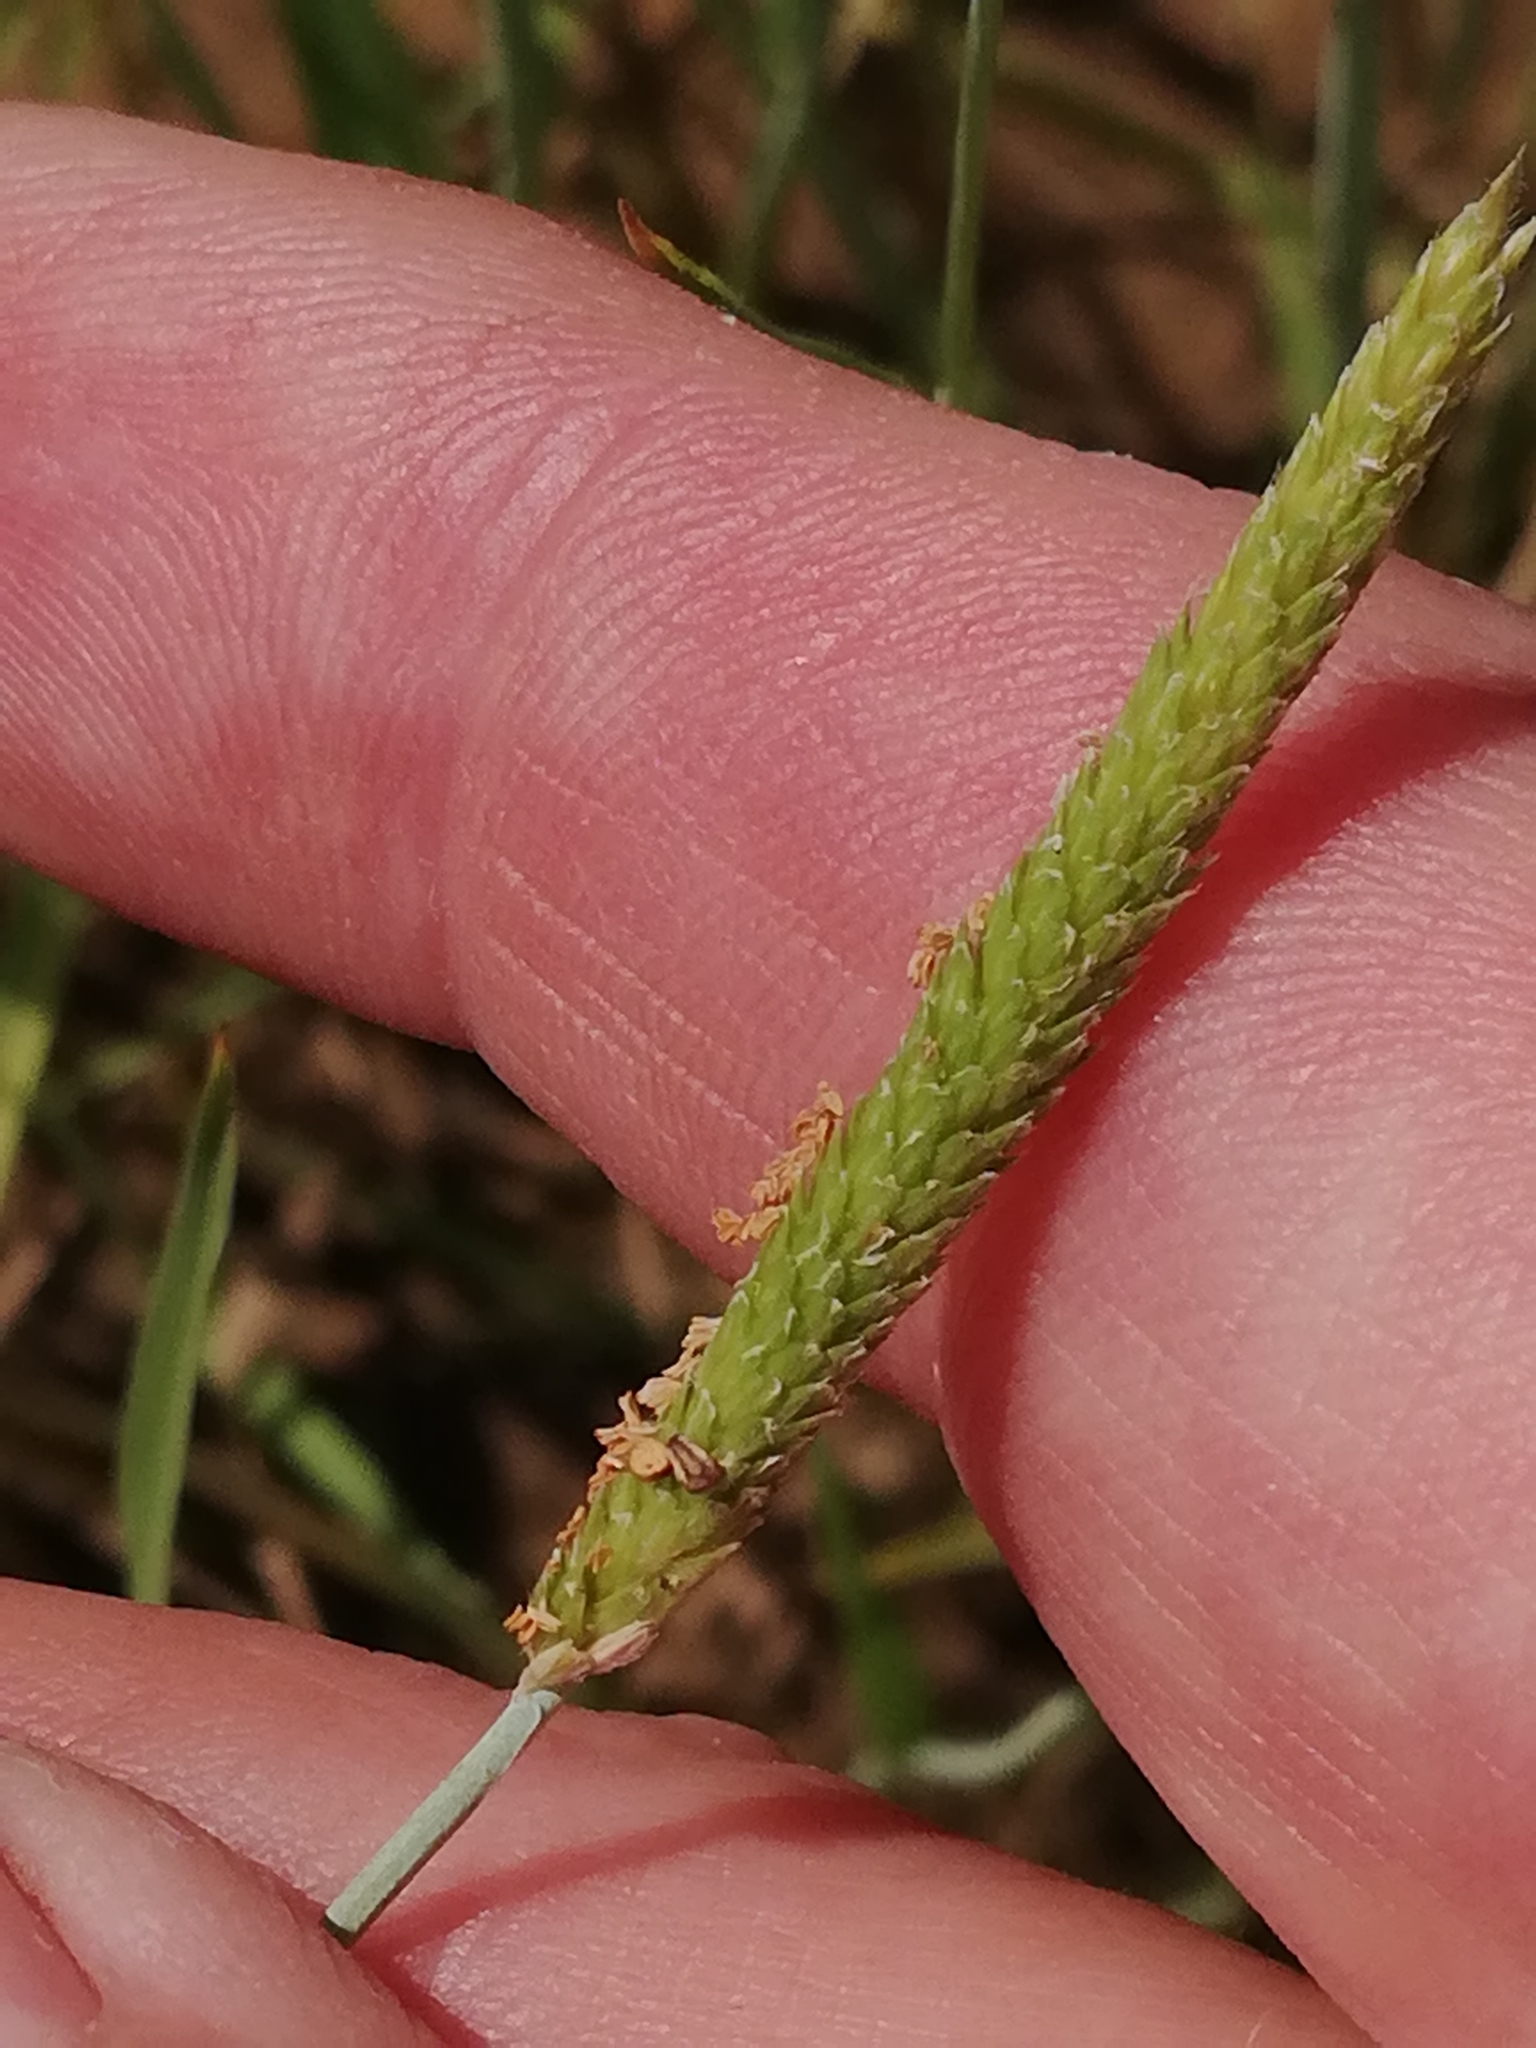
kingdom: Plantae
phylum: Tracheophyta
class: Liliopsida
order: Poales
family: Poaceae
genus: Alopecurus
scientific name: Alopecurus aequalis
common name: Orange foxtail
